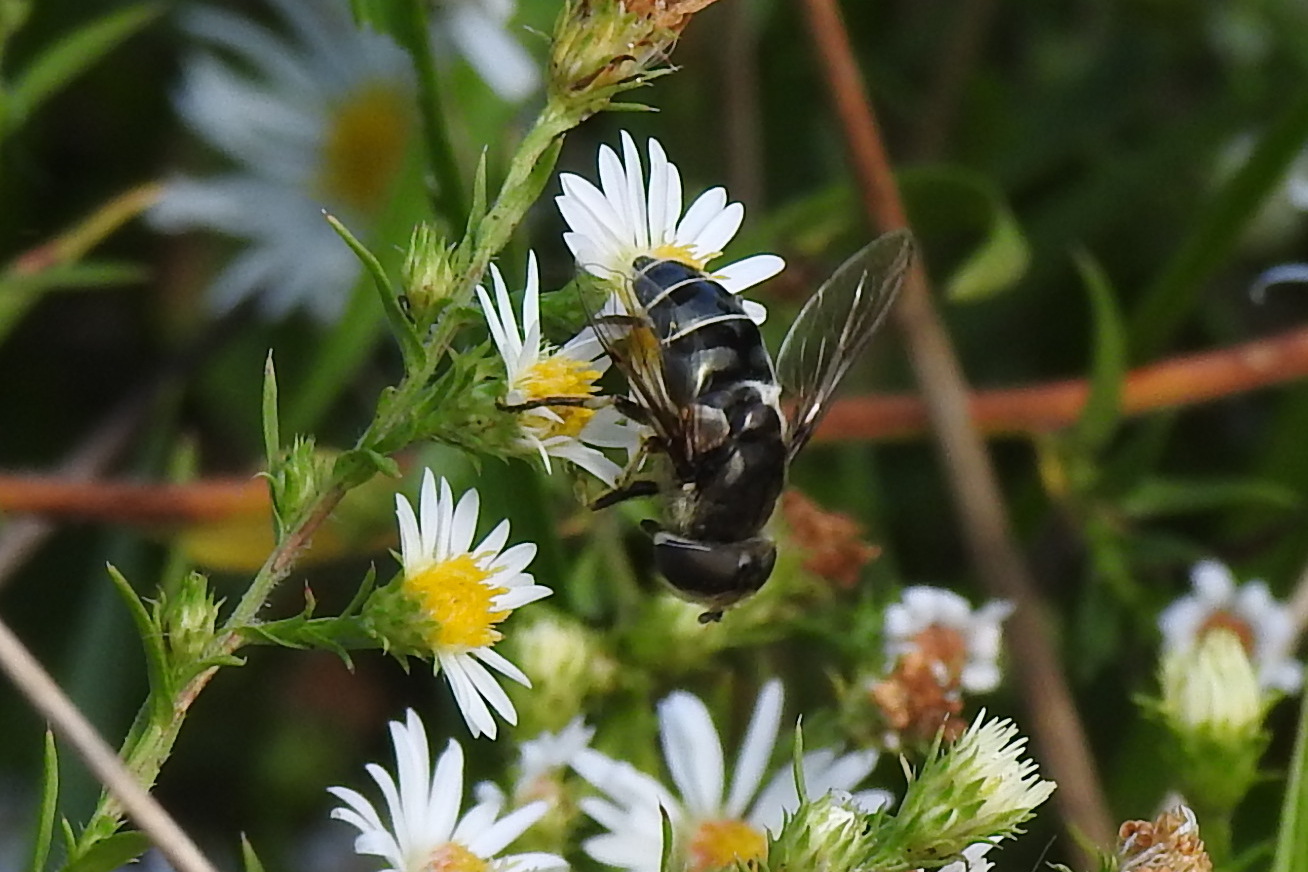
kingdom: Animalia
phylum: Arthropoda
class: Insecta
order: Diptera
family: Syrphidae
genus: Eristalis
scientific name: Eristalis dimidiata
